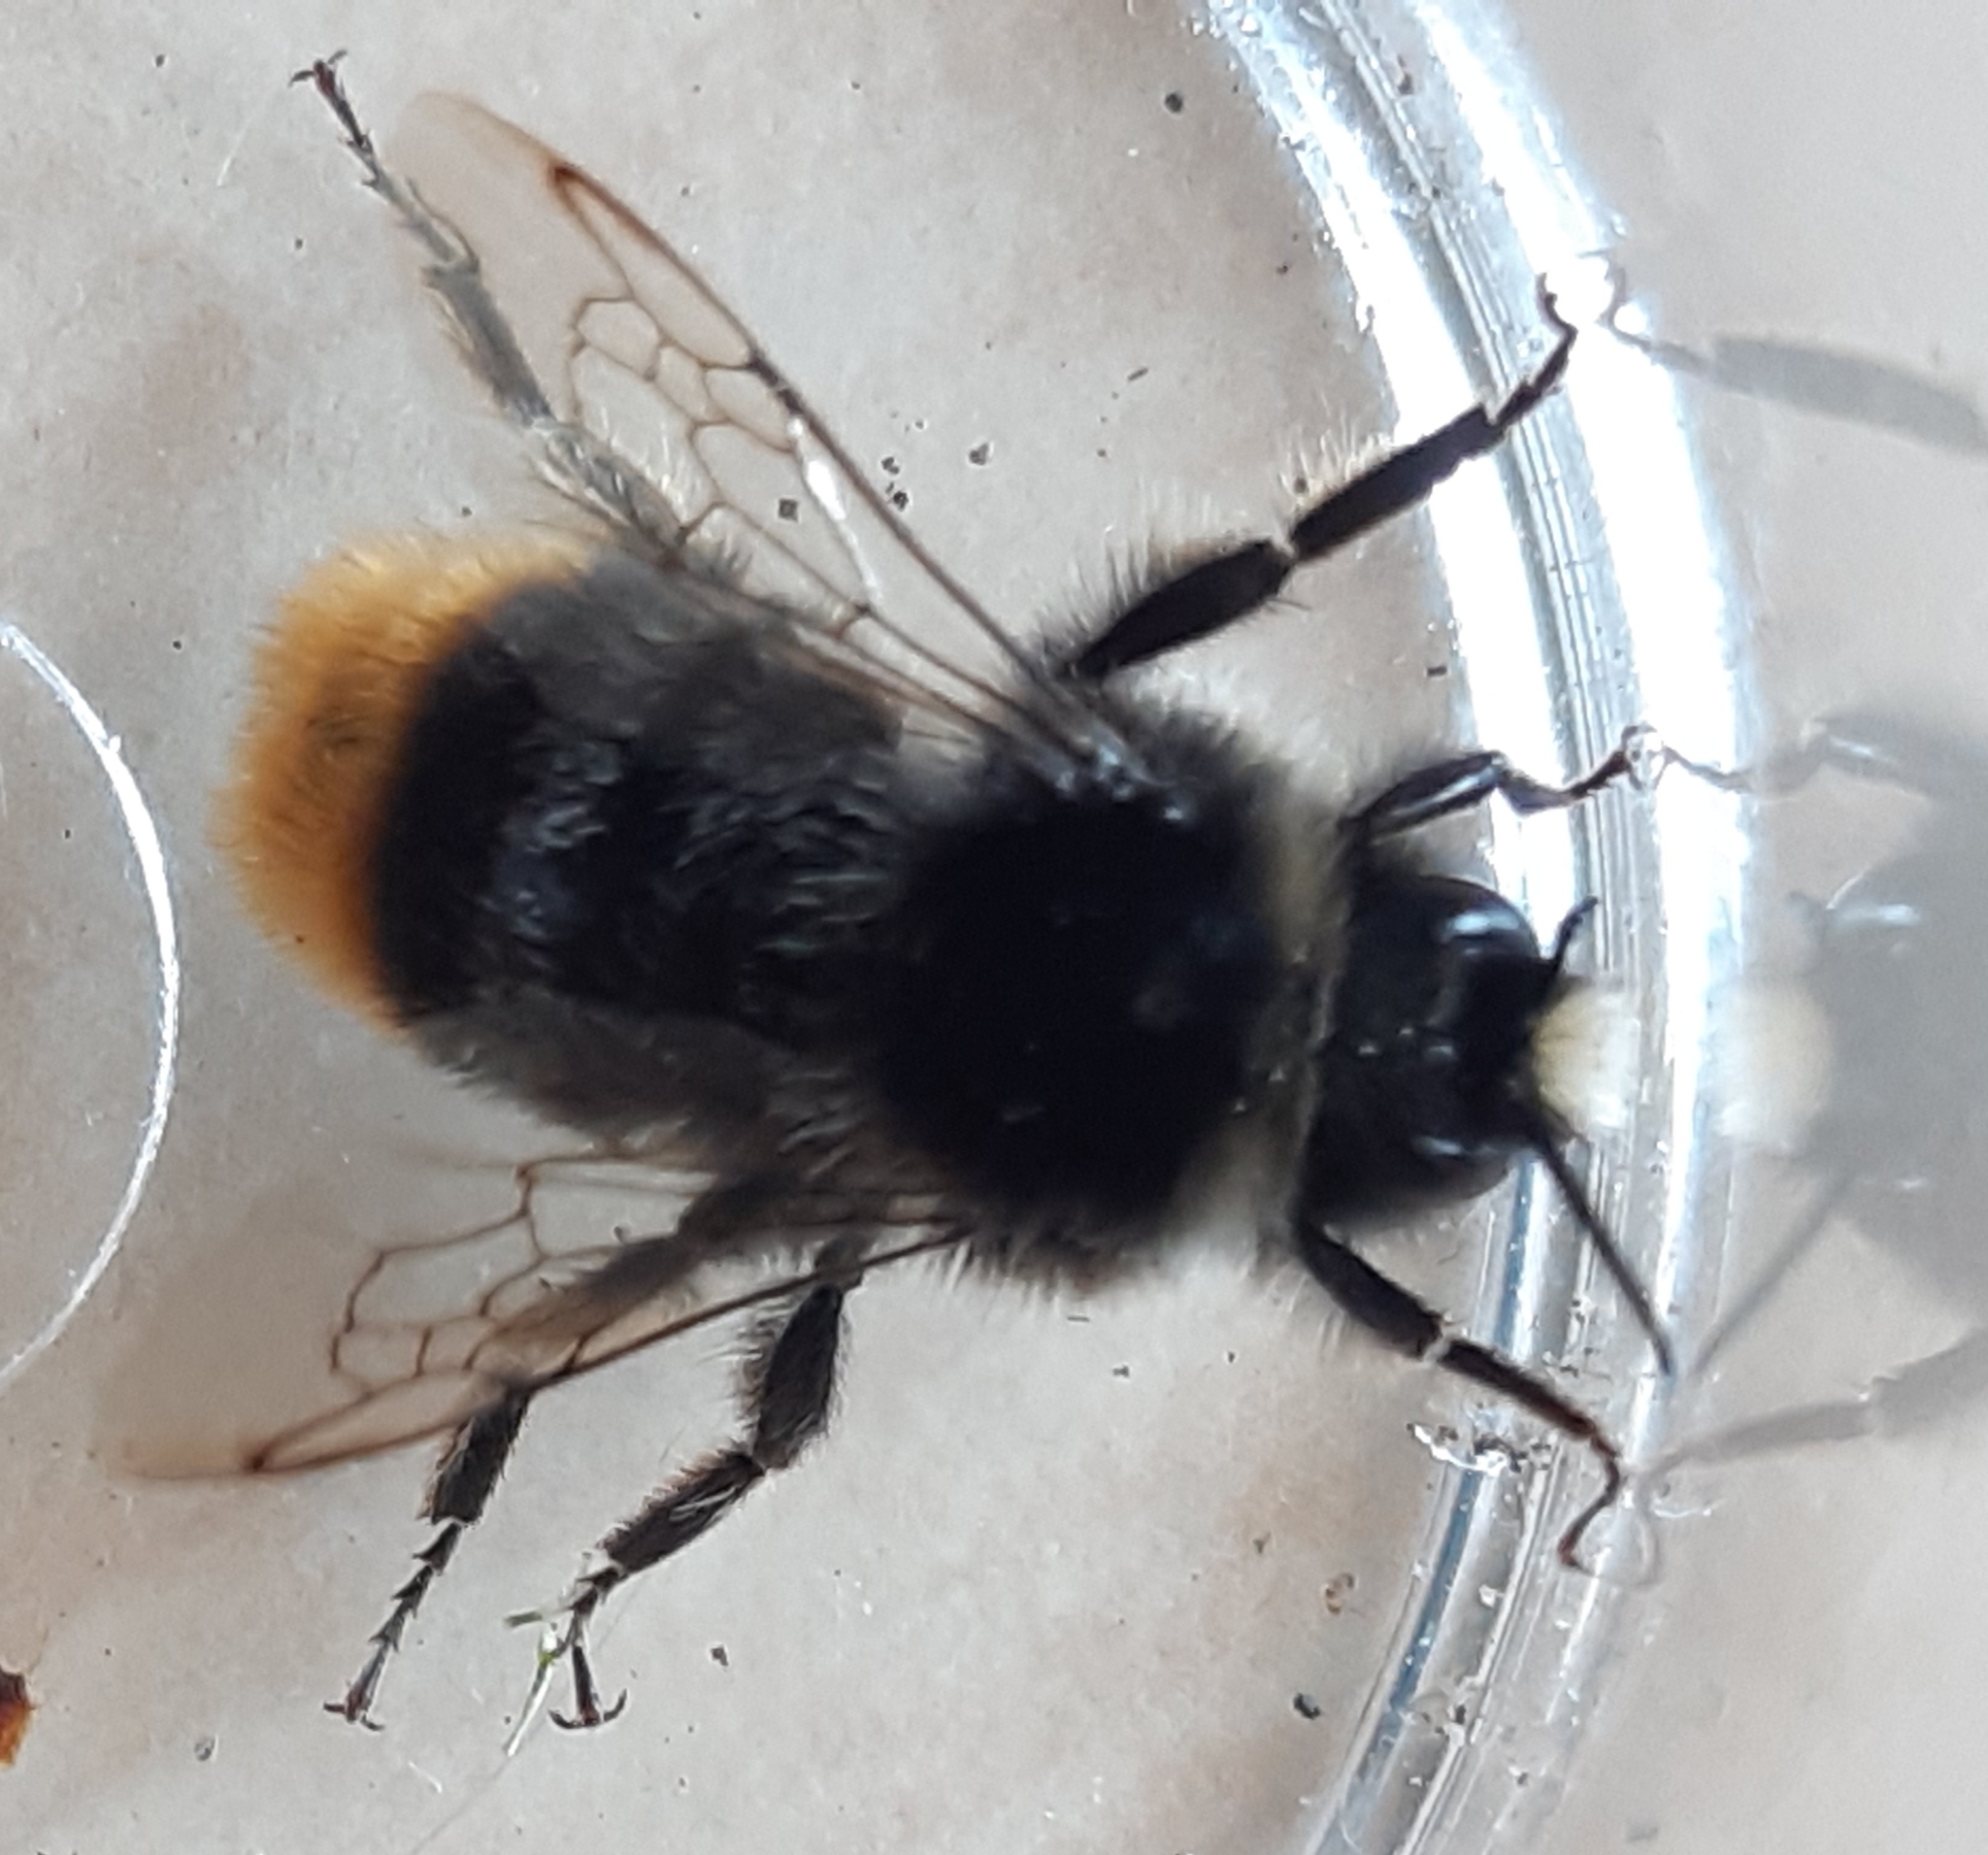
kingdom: Animalia
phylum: Arthropoda
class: Insecta
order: Hymenoptera
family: Apidae
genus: Bombus
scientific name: Bombus lapidarius
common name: Large red-tailed humble-bee
